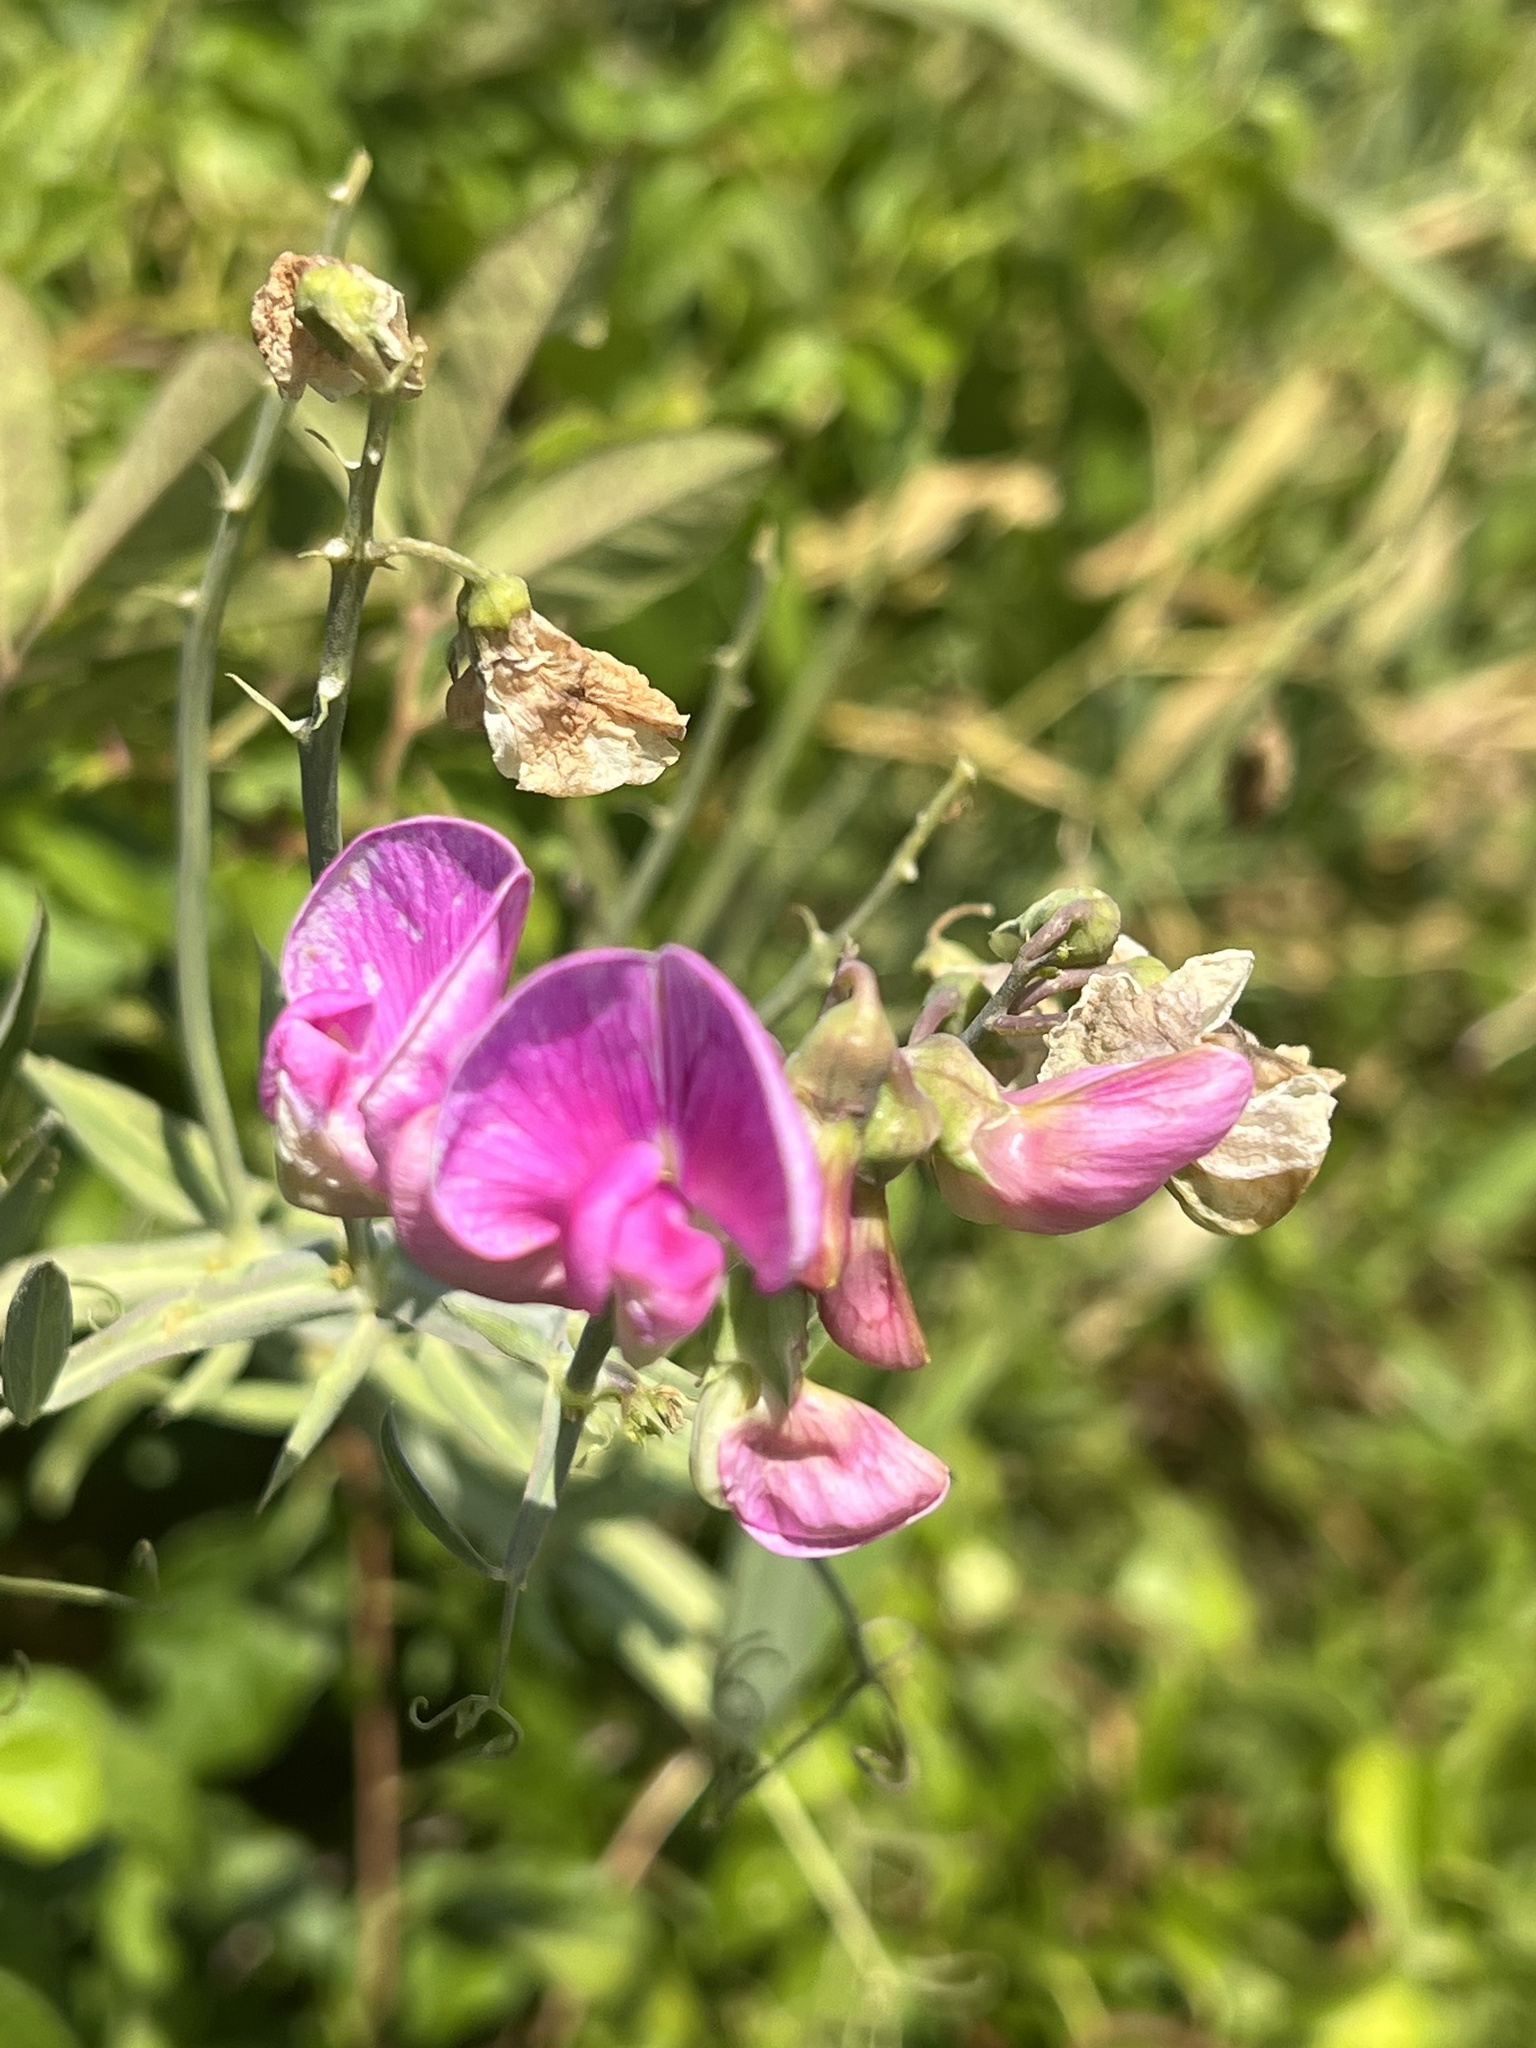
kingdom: Plantae
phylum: Tracheophyta
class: Magnoliopsida
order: Fabales
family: Fabaceae
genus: Lathyrus
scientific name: Lathyrus latifolius
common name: Perennial pea
